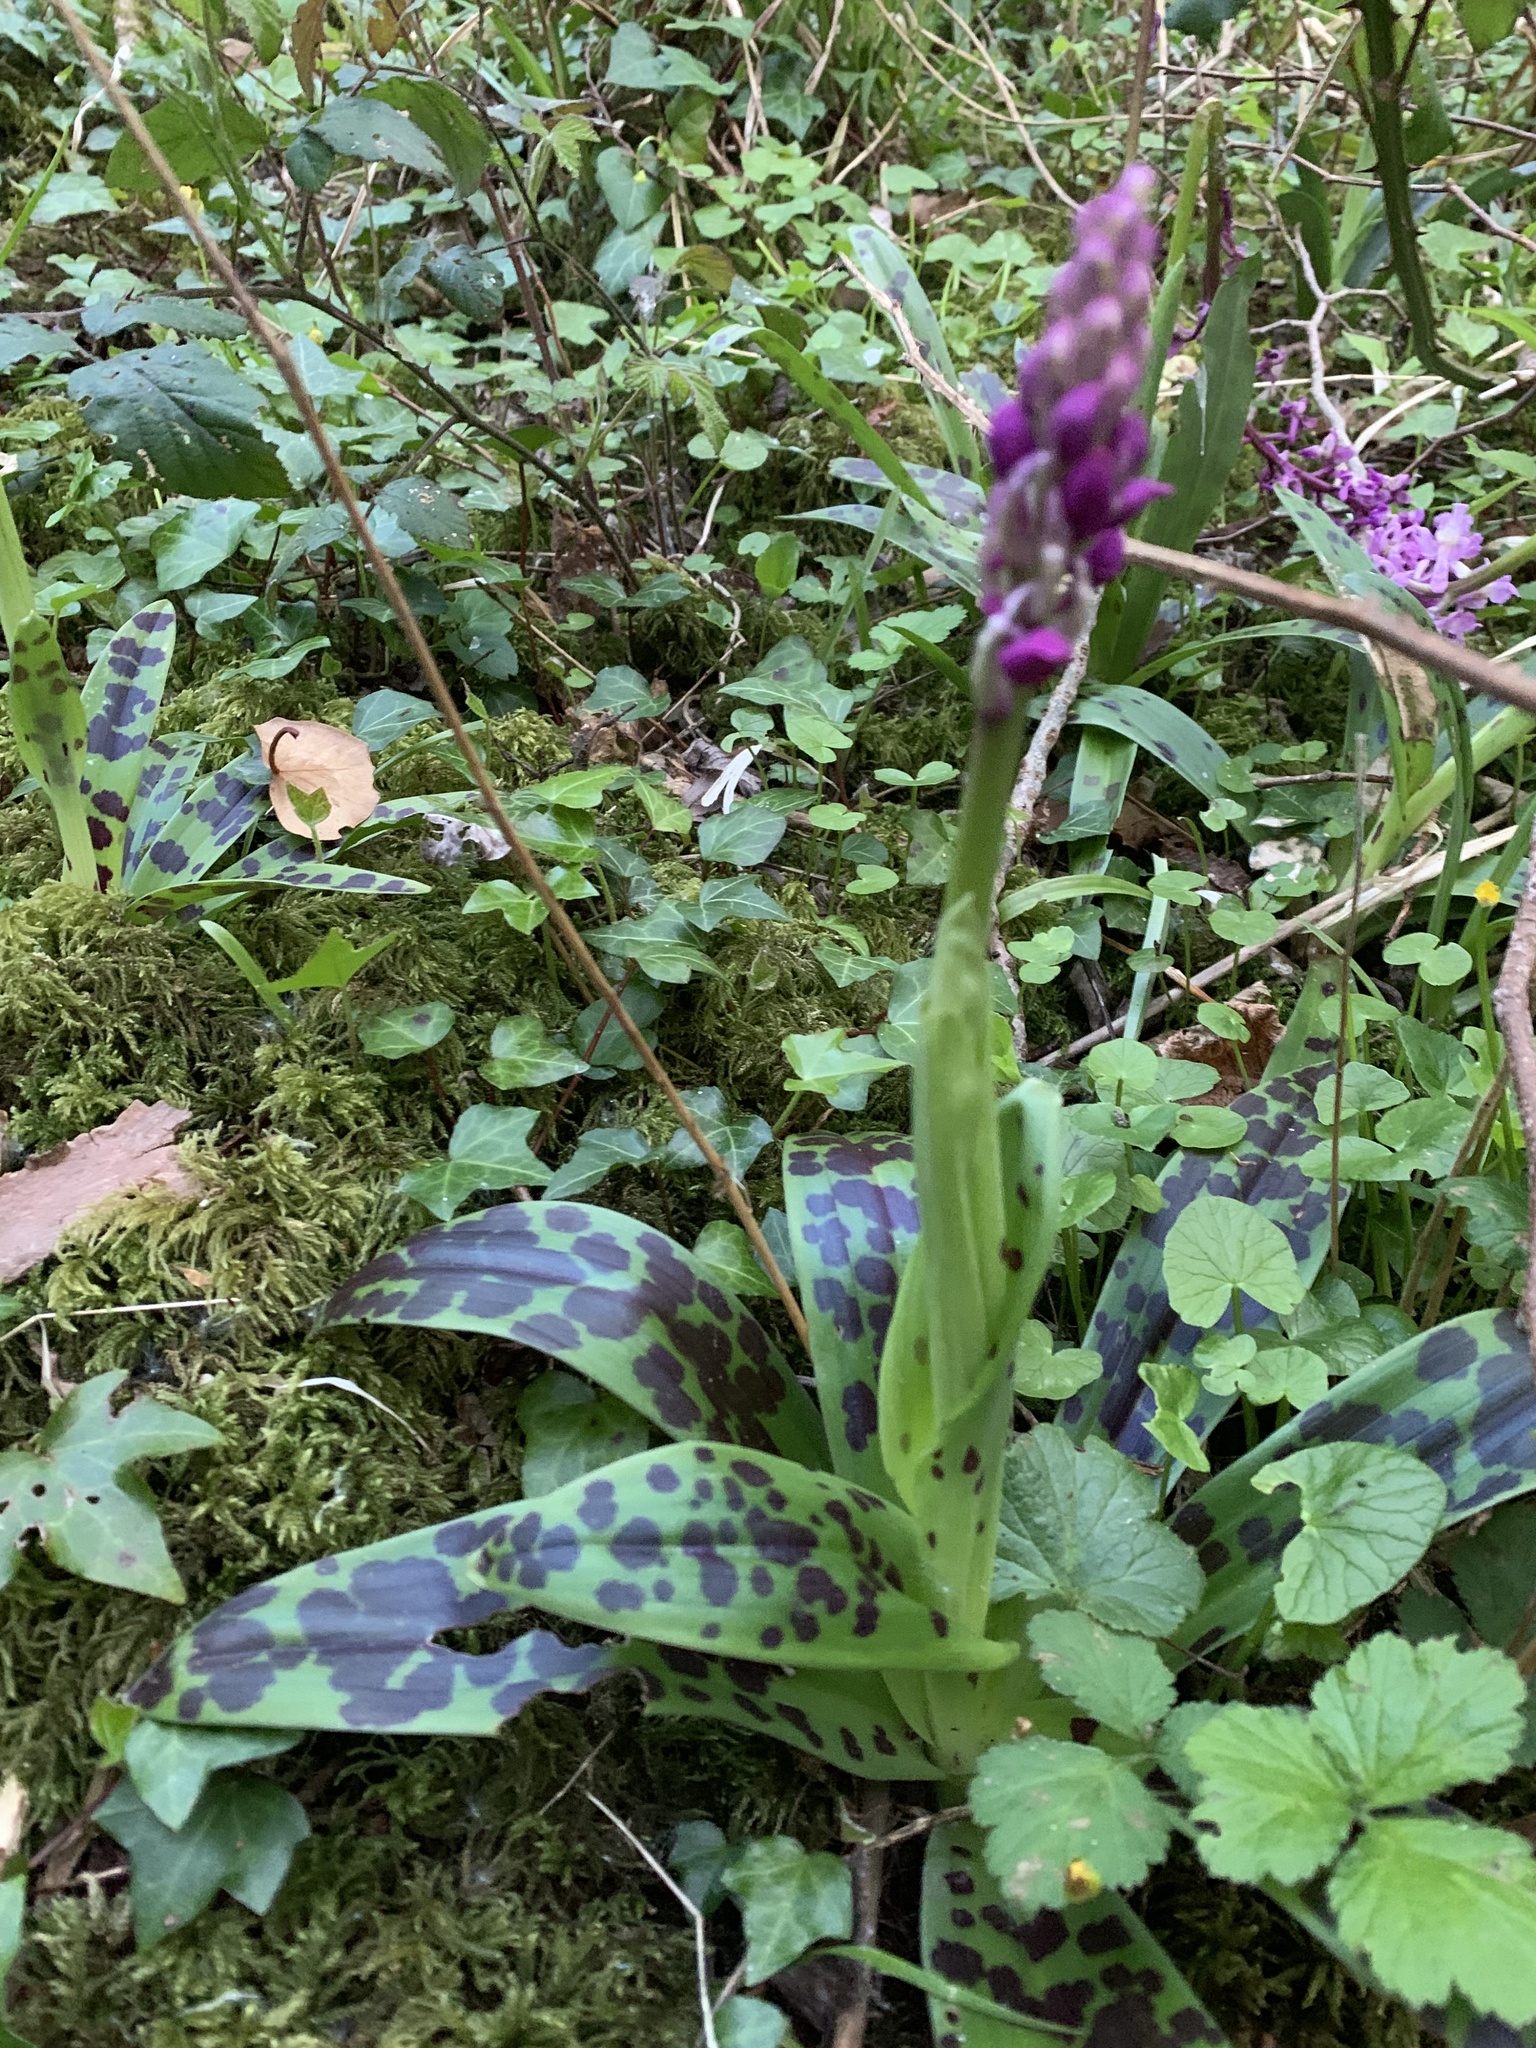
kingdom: Plantae
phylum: Tracheophyta
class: Liliopsida
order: Asparagales
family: Orchidaceae
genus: Orchis
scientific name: Orchis mascula
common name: Early-purple orchid
